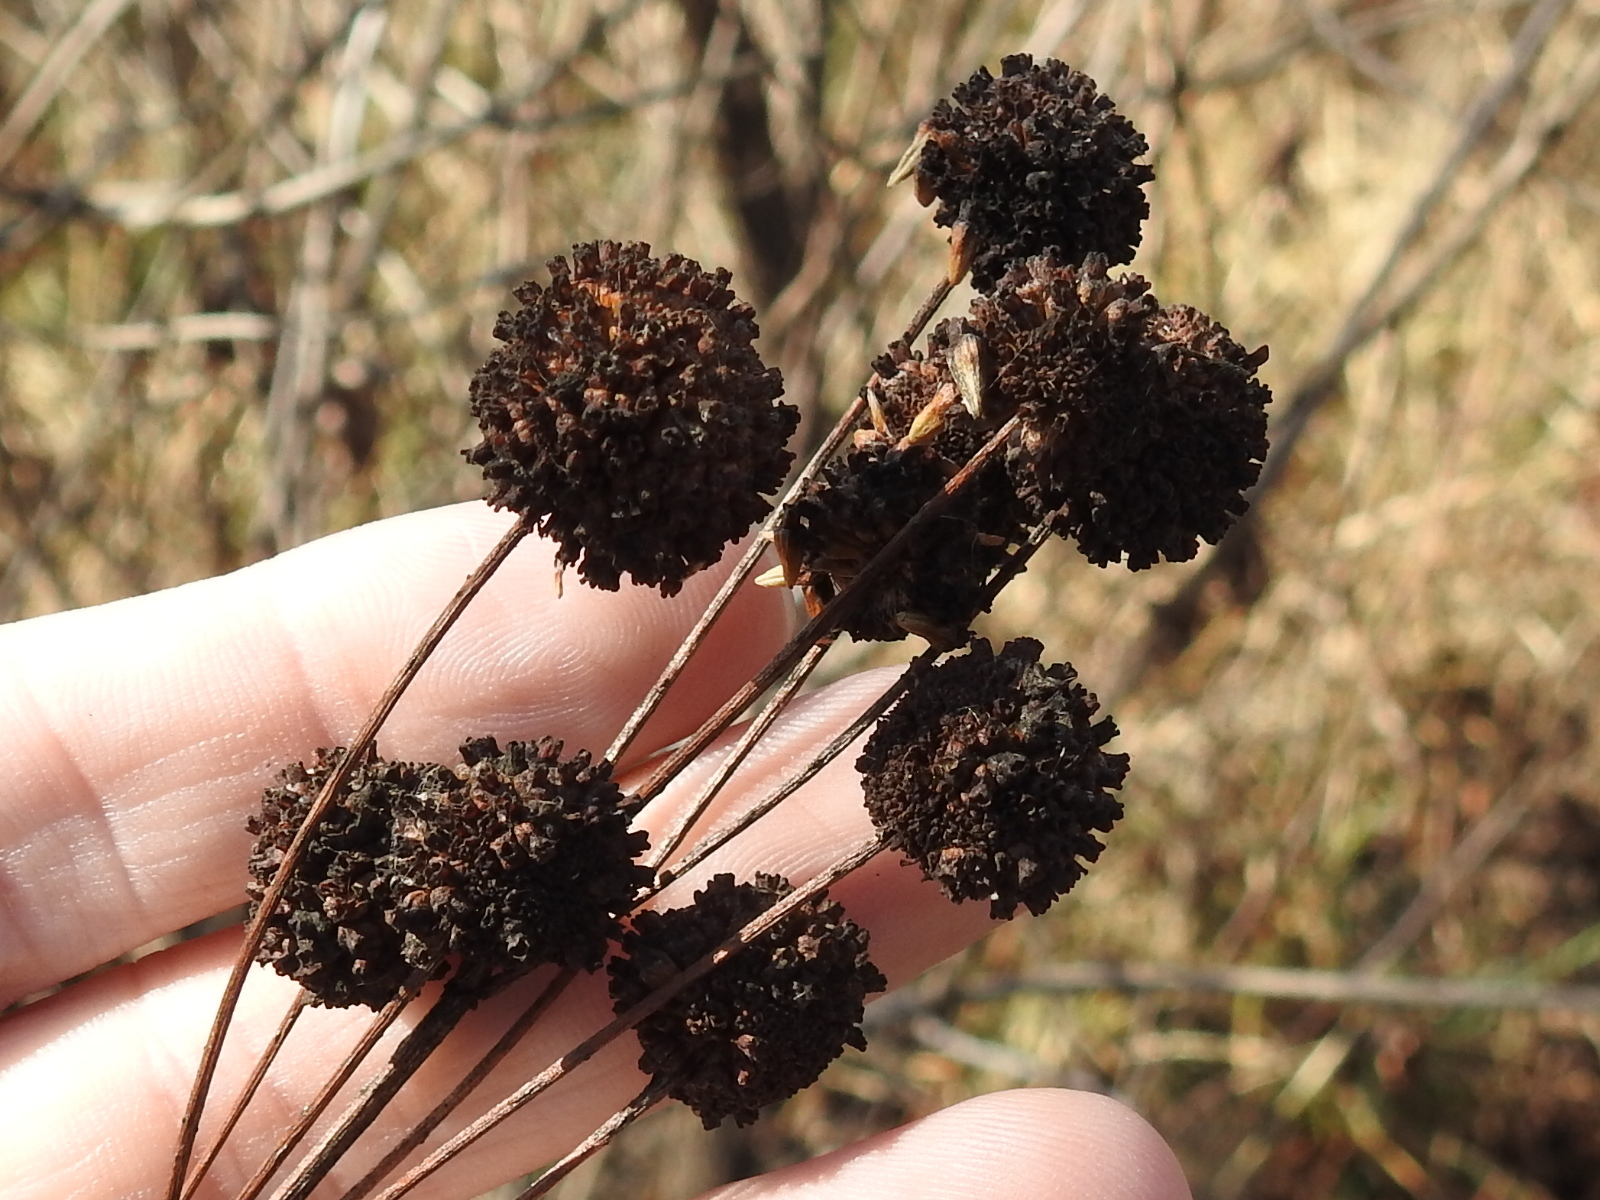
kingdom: Plantae
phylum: Tracheophyta
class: Magnoliopsida
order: Gentianales
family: Rubiaceae
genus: Cephalanthus
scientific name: Cephalanthus occidentalis
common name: Button-willow
